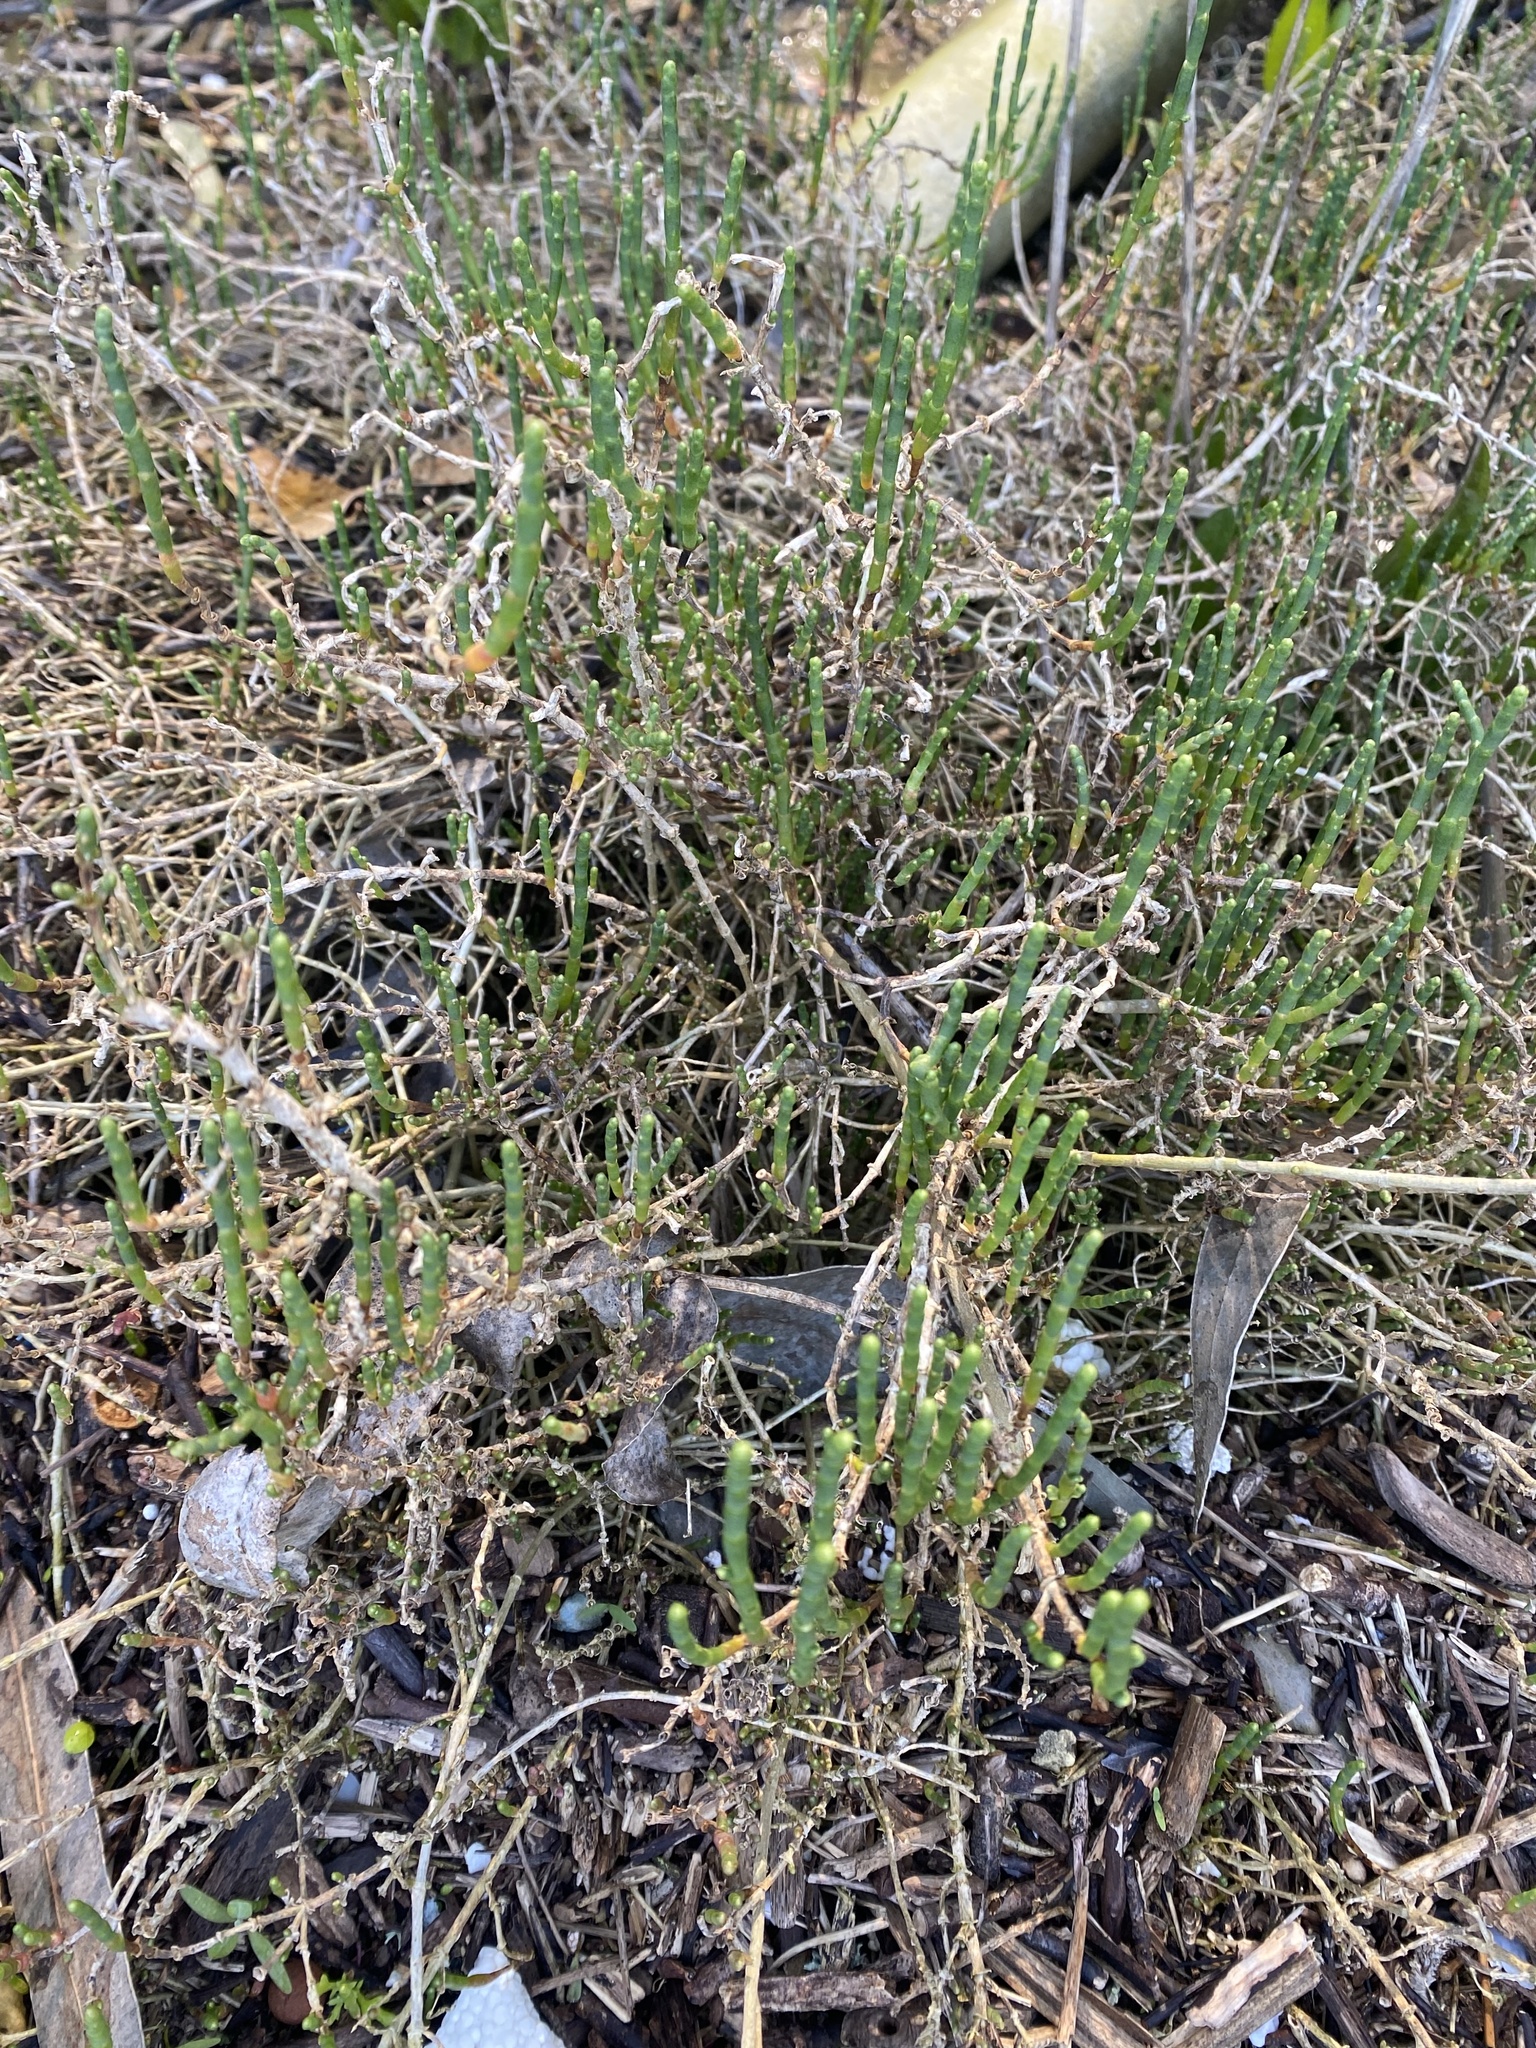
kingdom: Plantae
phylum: Tracheophyta
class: Magnoliopsida
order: Caryophyllales
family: Amaranthaceae
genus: Salicornia
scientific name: Salicornia pacifica
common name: Pacific glasswort
